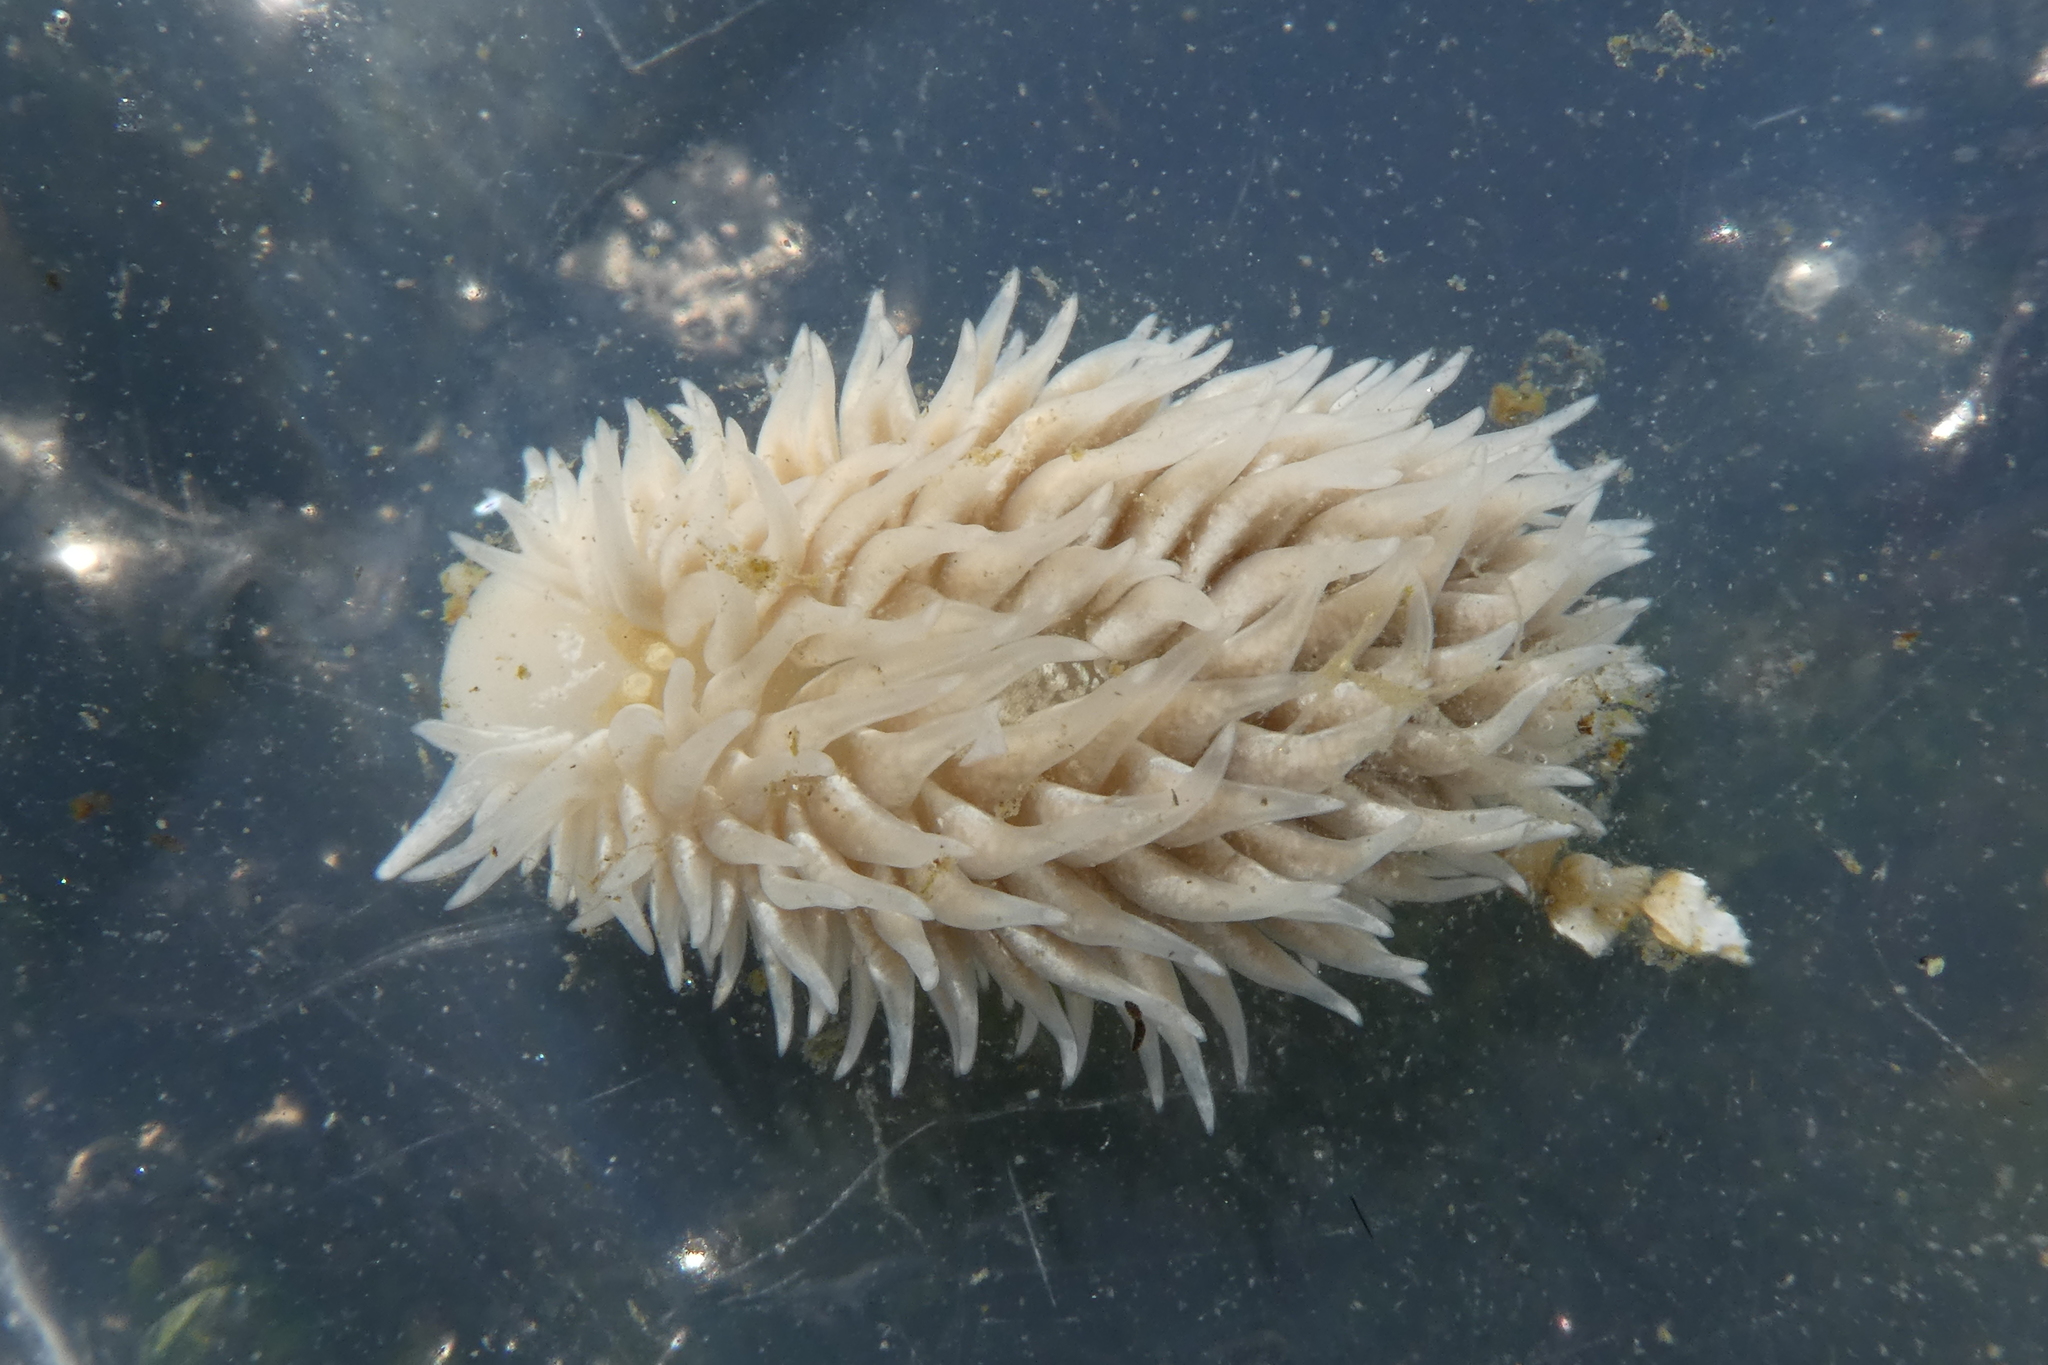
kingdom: Animalia
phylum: Mollusca
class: Gastropoda
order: Nudibranchia
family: Aeolidiidae
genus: Aeolidia
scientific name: Aeolidia loui
